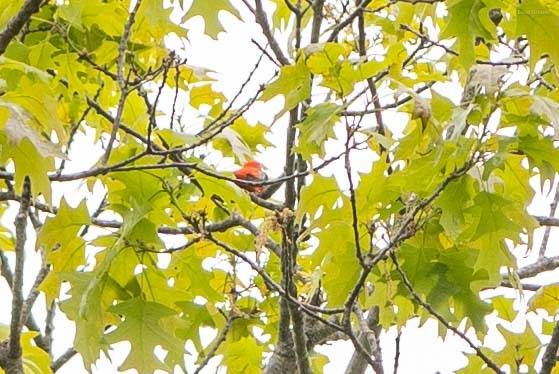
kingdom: Animalia
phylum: Chordata
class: Aves
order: Passeriformes
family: Cardinalidae
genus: Piranga
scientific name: Piranga olivacea
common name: Scarlet tanager
